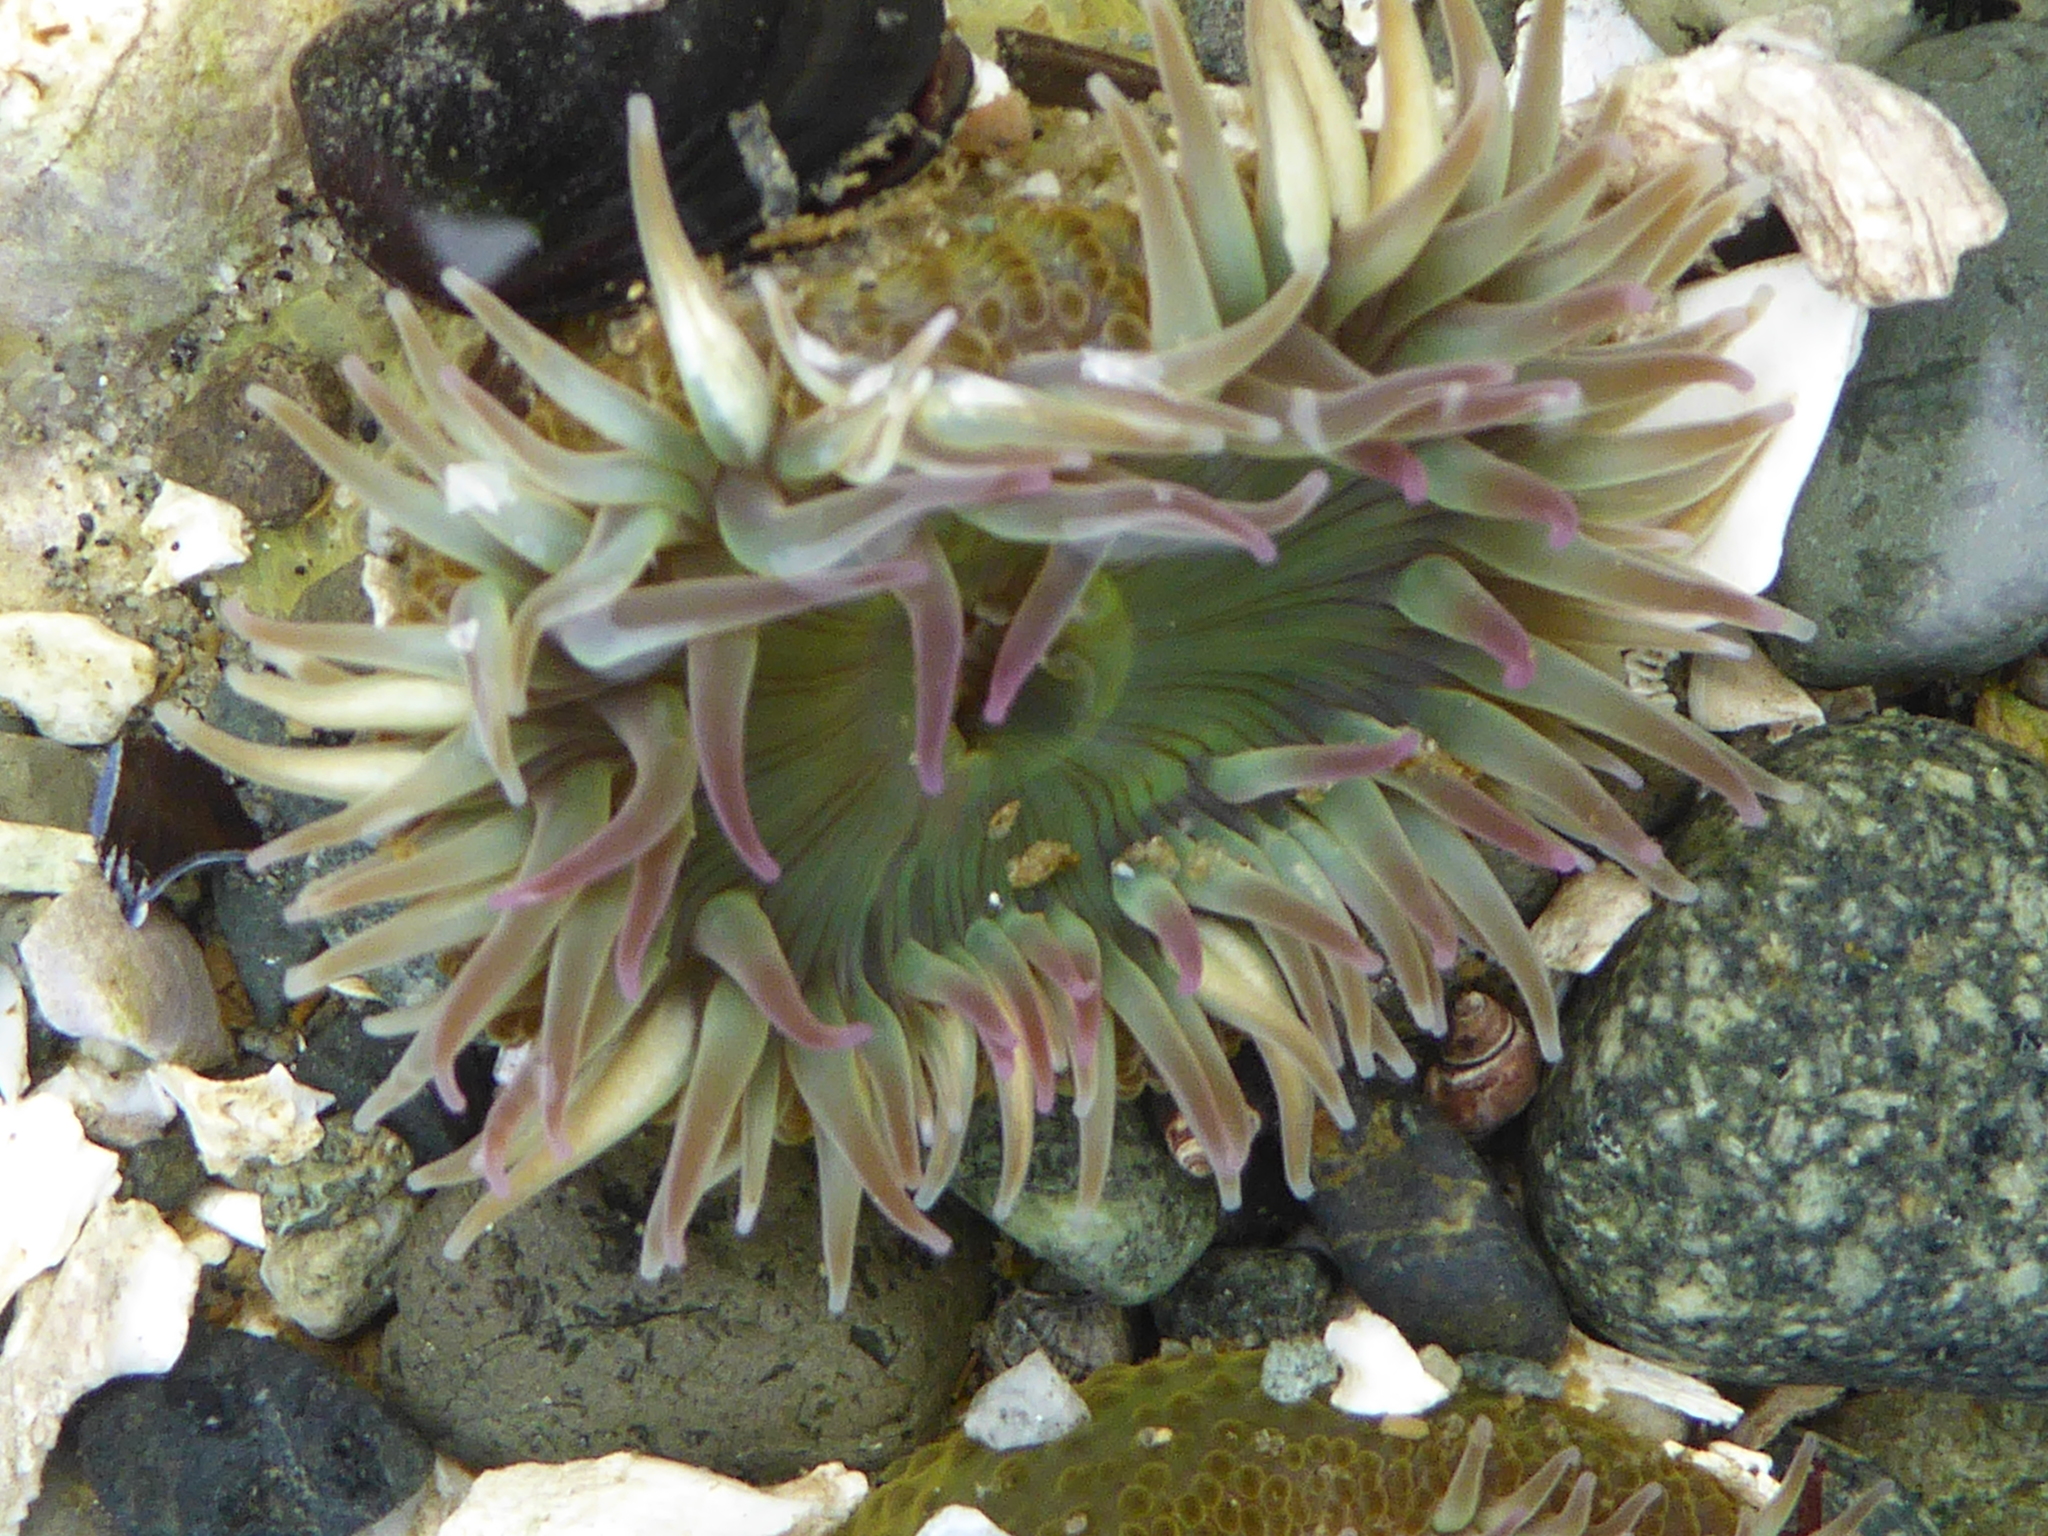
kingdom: Animalia
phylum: Cnidaria
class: Anthozoa
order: Actiniaria
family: Actiniidae
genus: Anthopleura
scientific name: Anthopleura elegantissima
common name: Clonal anemone
